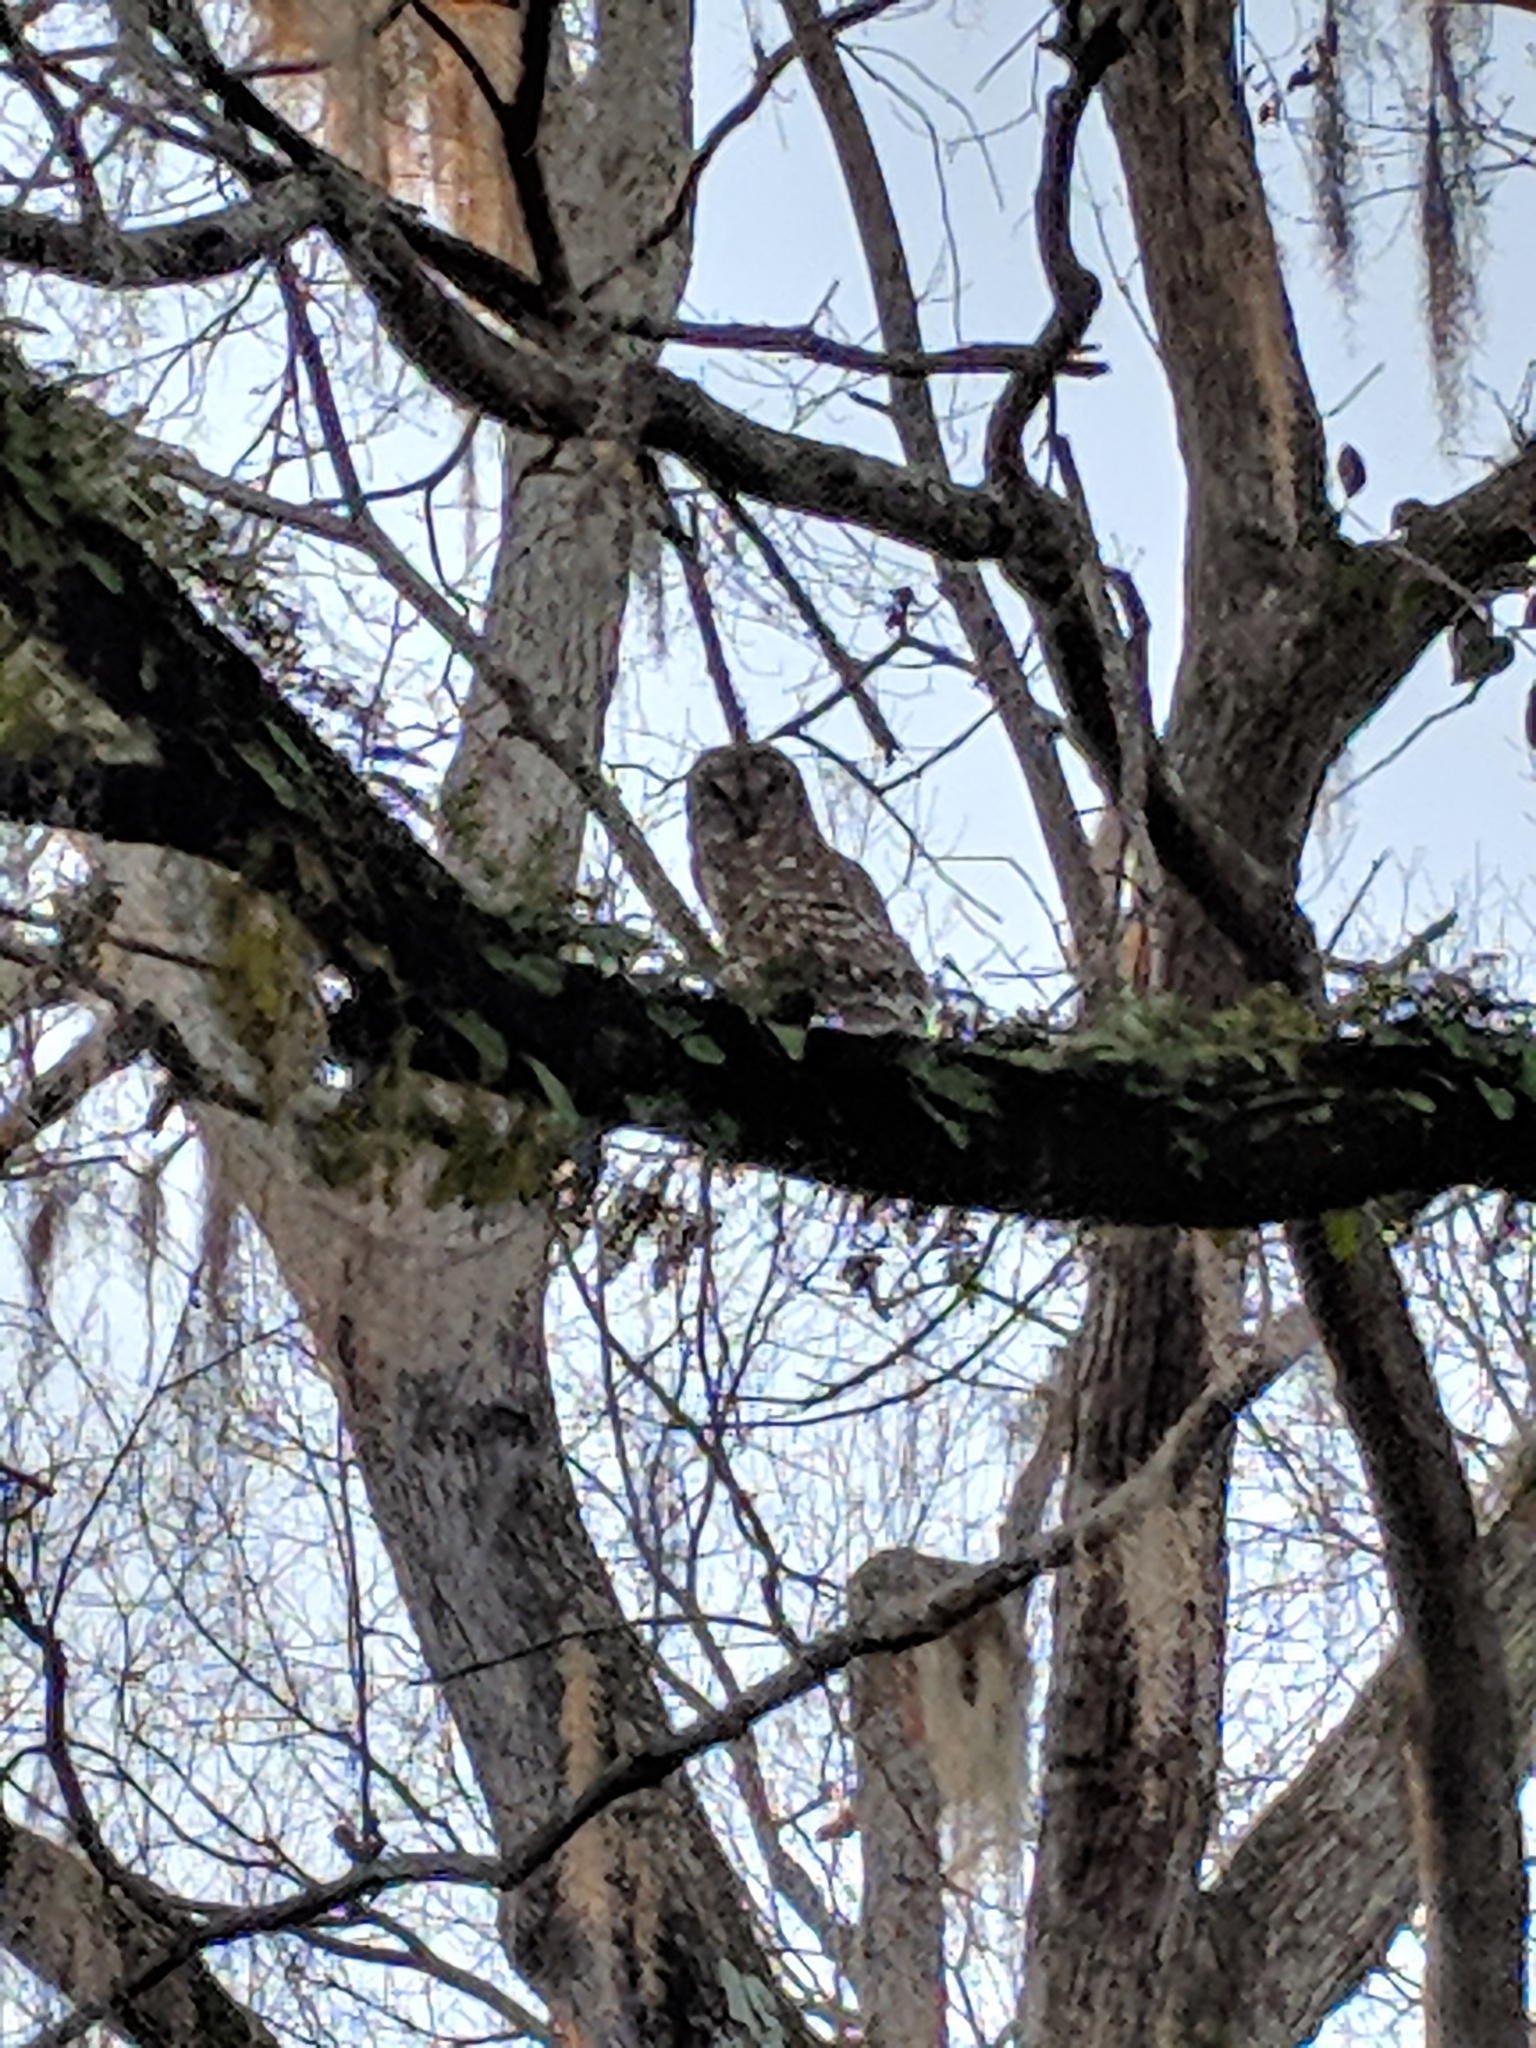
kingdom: Animalia
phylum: Chordata
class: Aves
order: Strigiformes
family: Strigidae
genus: Strix
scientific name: Strix varia
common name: Barred owl
